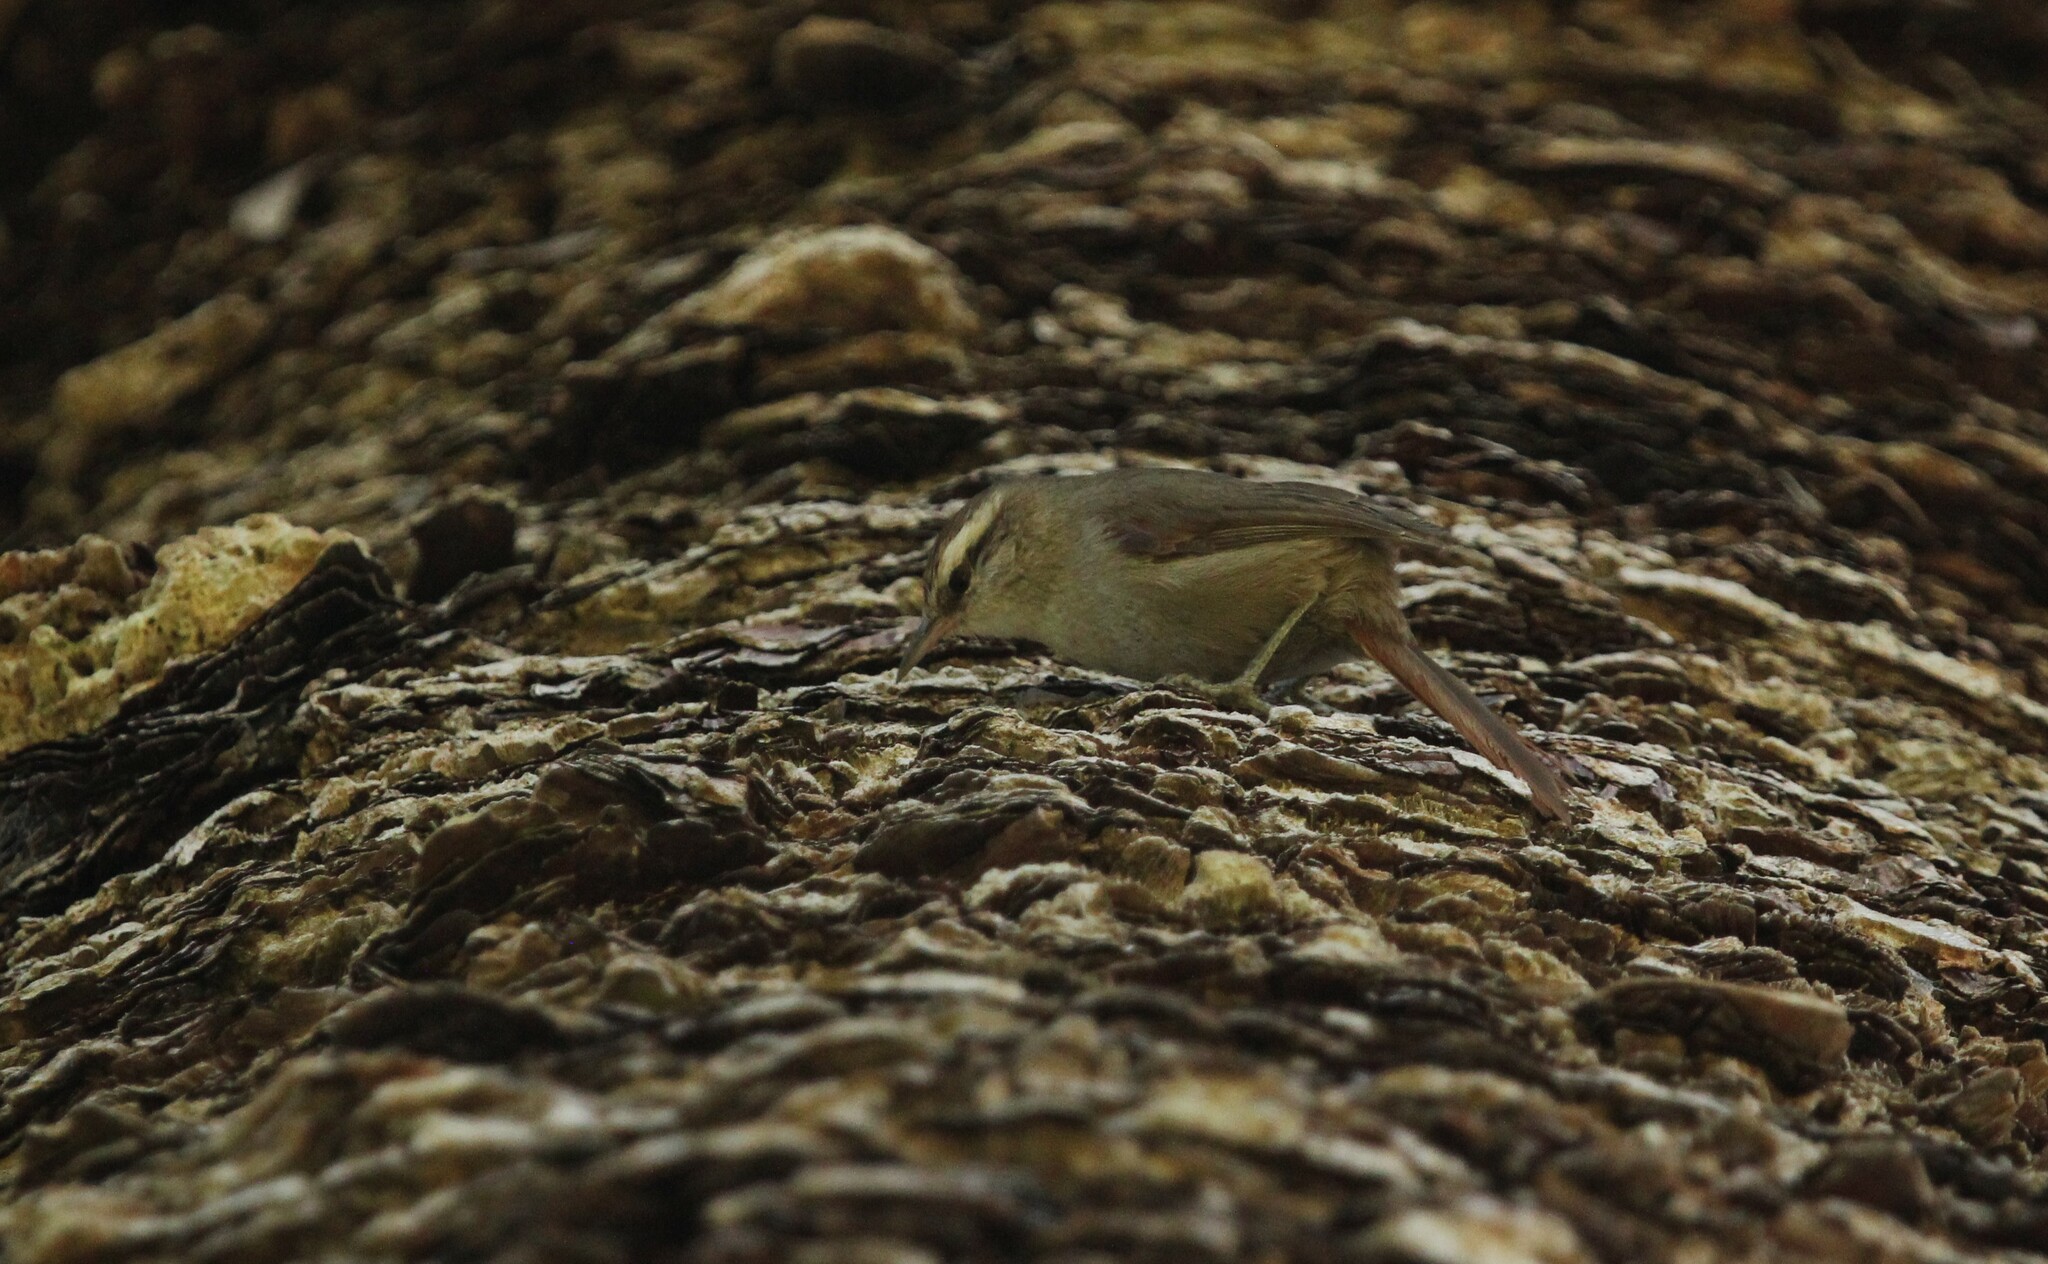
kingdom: Animalia
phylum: Chordata
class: Aves
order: Passeriformes
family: Furnariidae
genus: Cranioleuca
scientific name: Cranioleuca pyrrhophia
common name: Stripe-crowned spinetail
